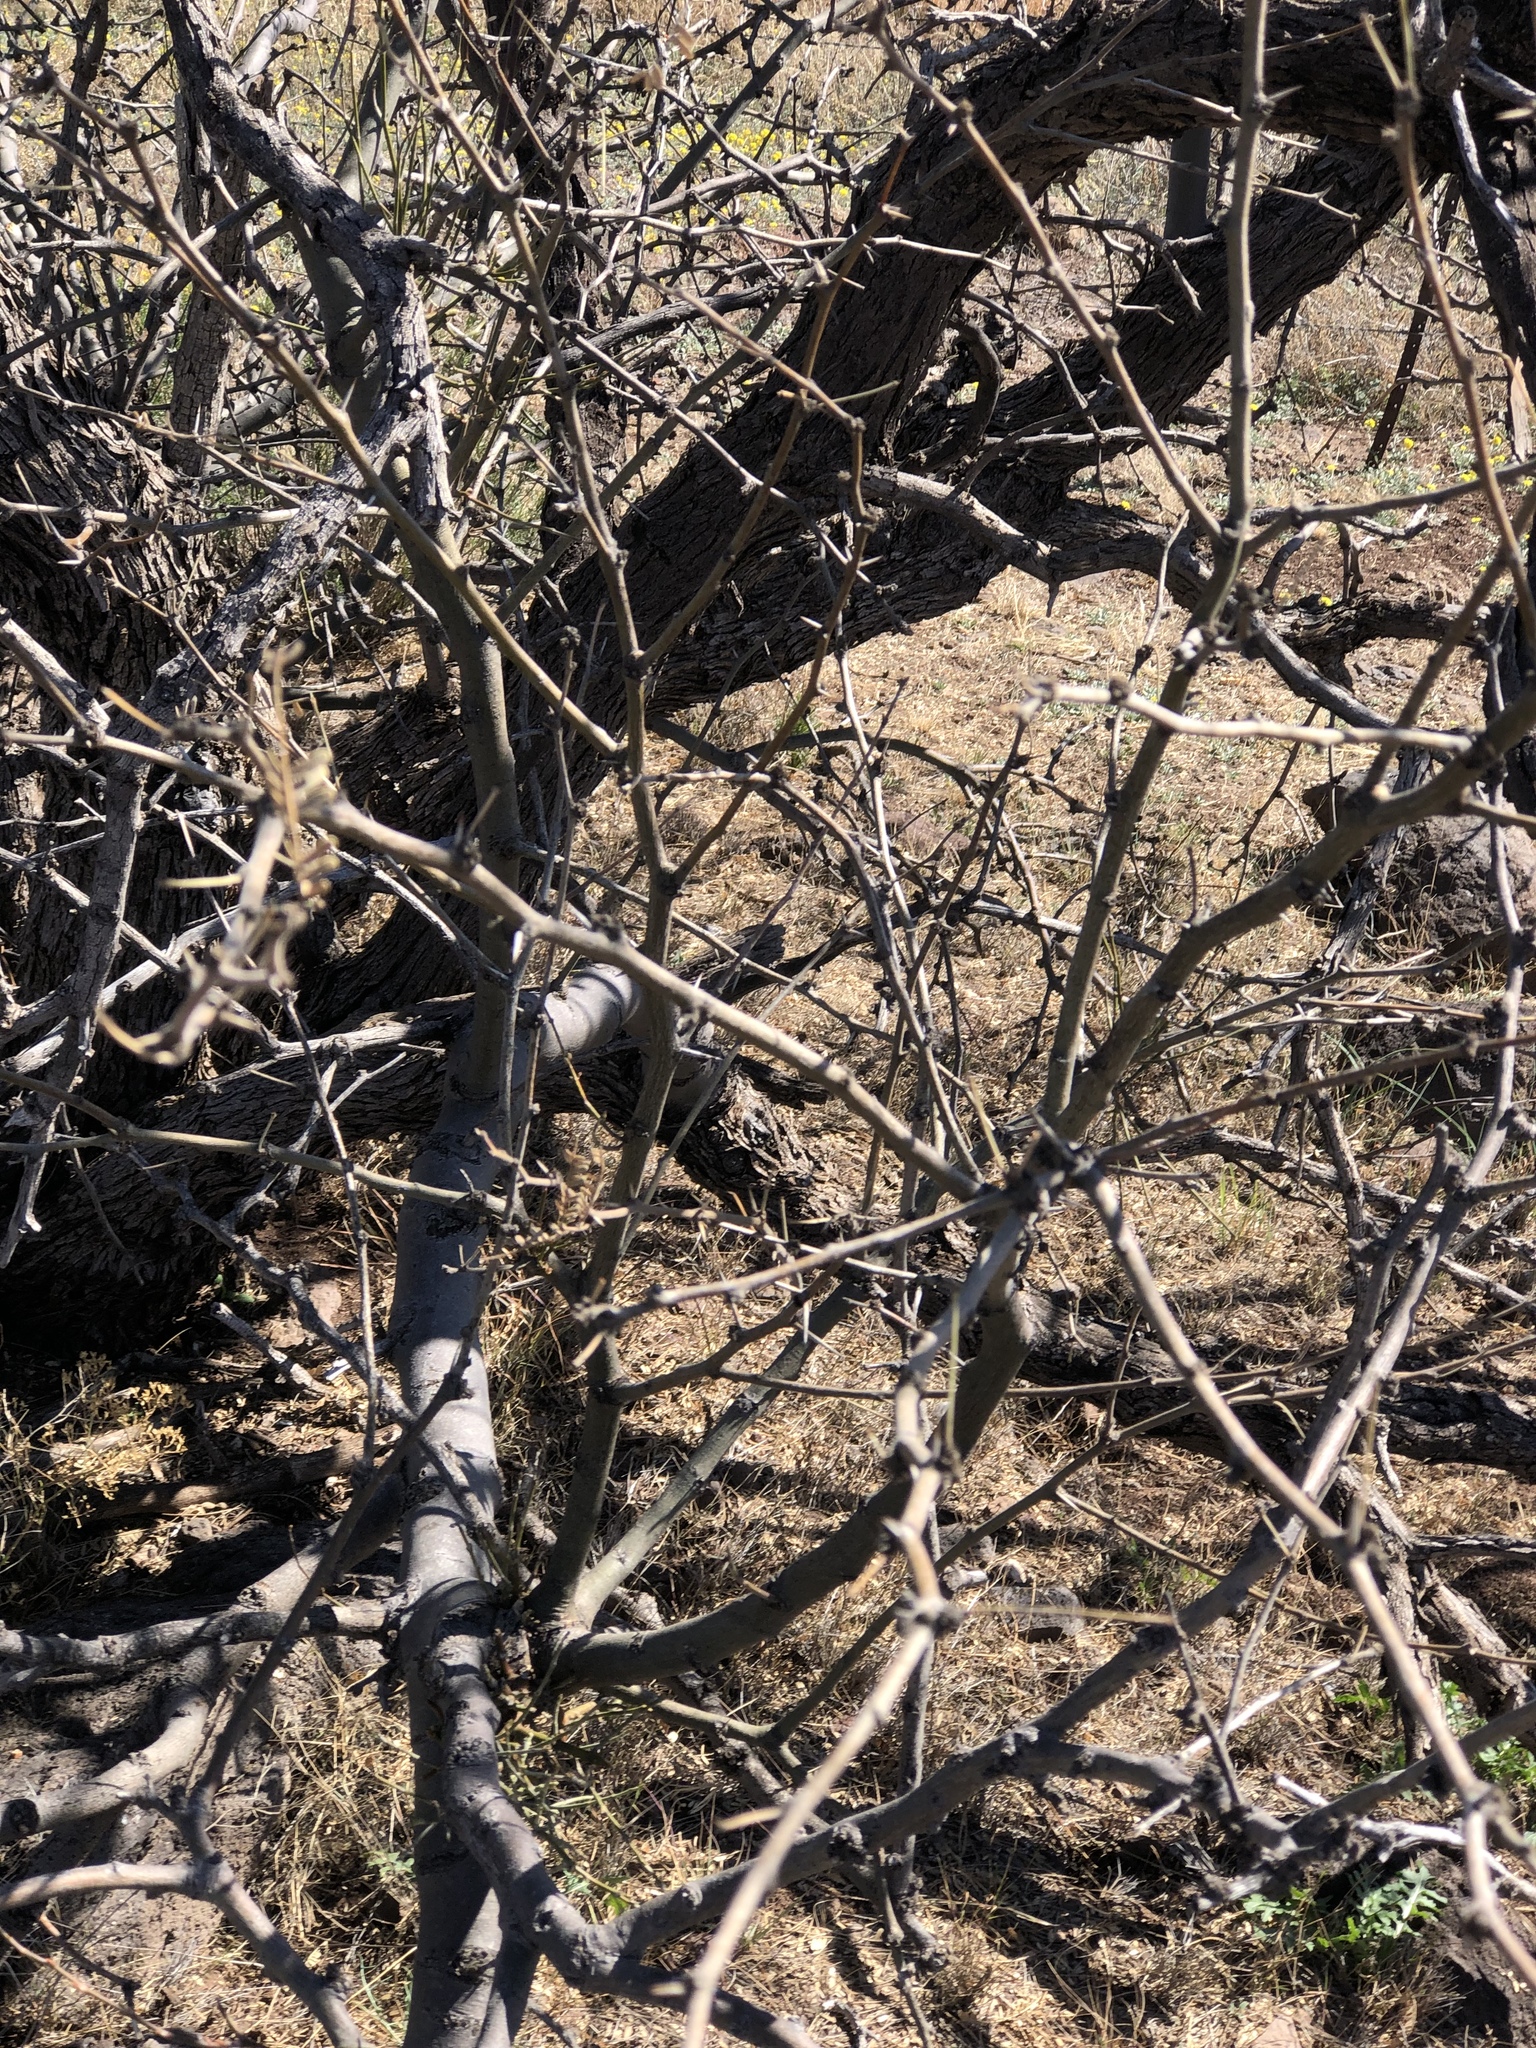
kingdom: Plantae
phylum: Tracheophyta
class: Magnoliopsida
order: Fabales
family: Fabaceae
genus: Prosopis
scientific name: Prosopis glandulosa
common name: Honey mesquite
